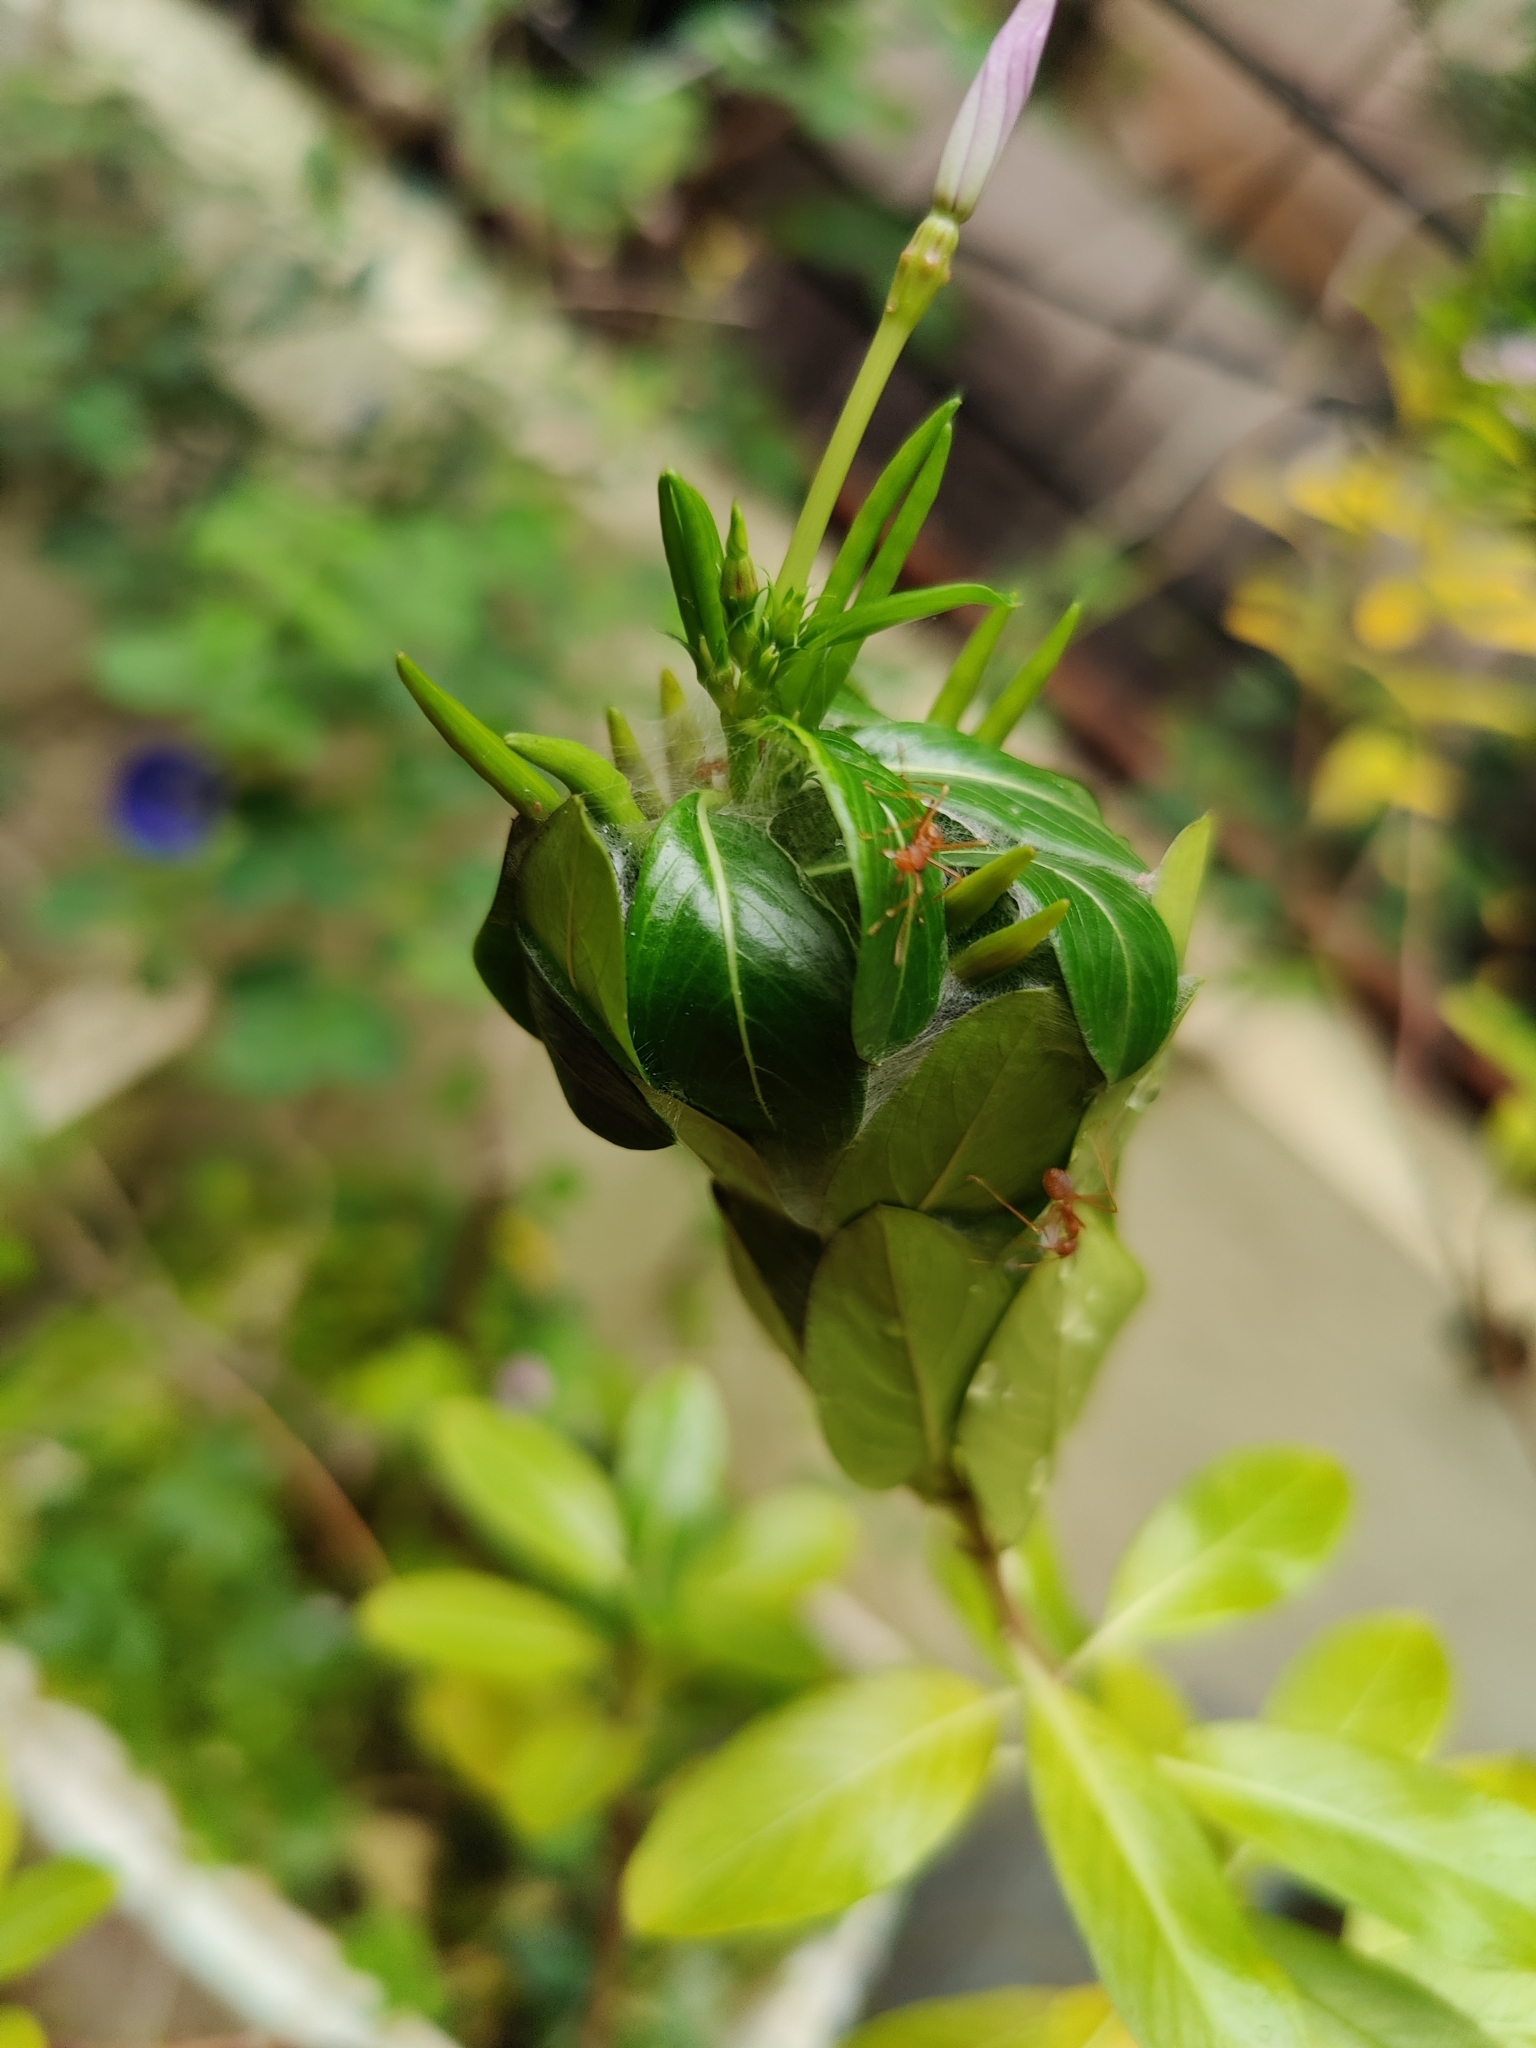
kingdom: Animalia
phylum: Arthropoda
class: Insecta
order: Hymenoptera
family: Formicidae
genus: Oecophylla
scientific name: Oecophylla smaragdina
